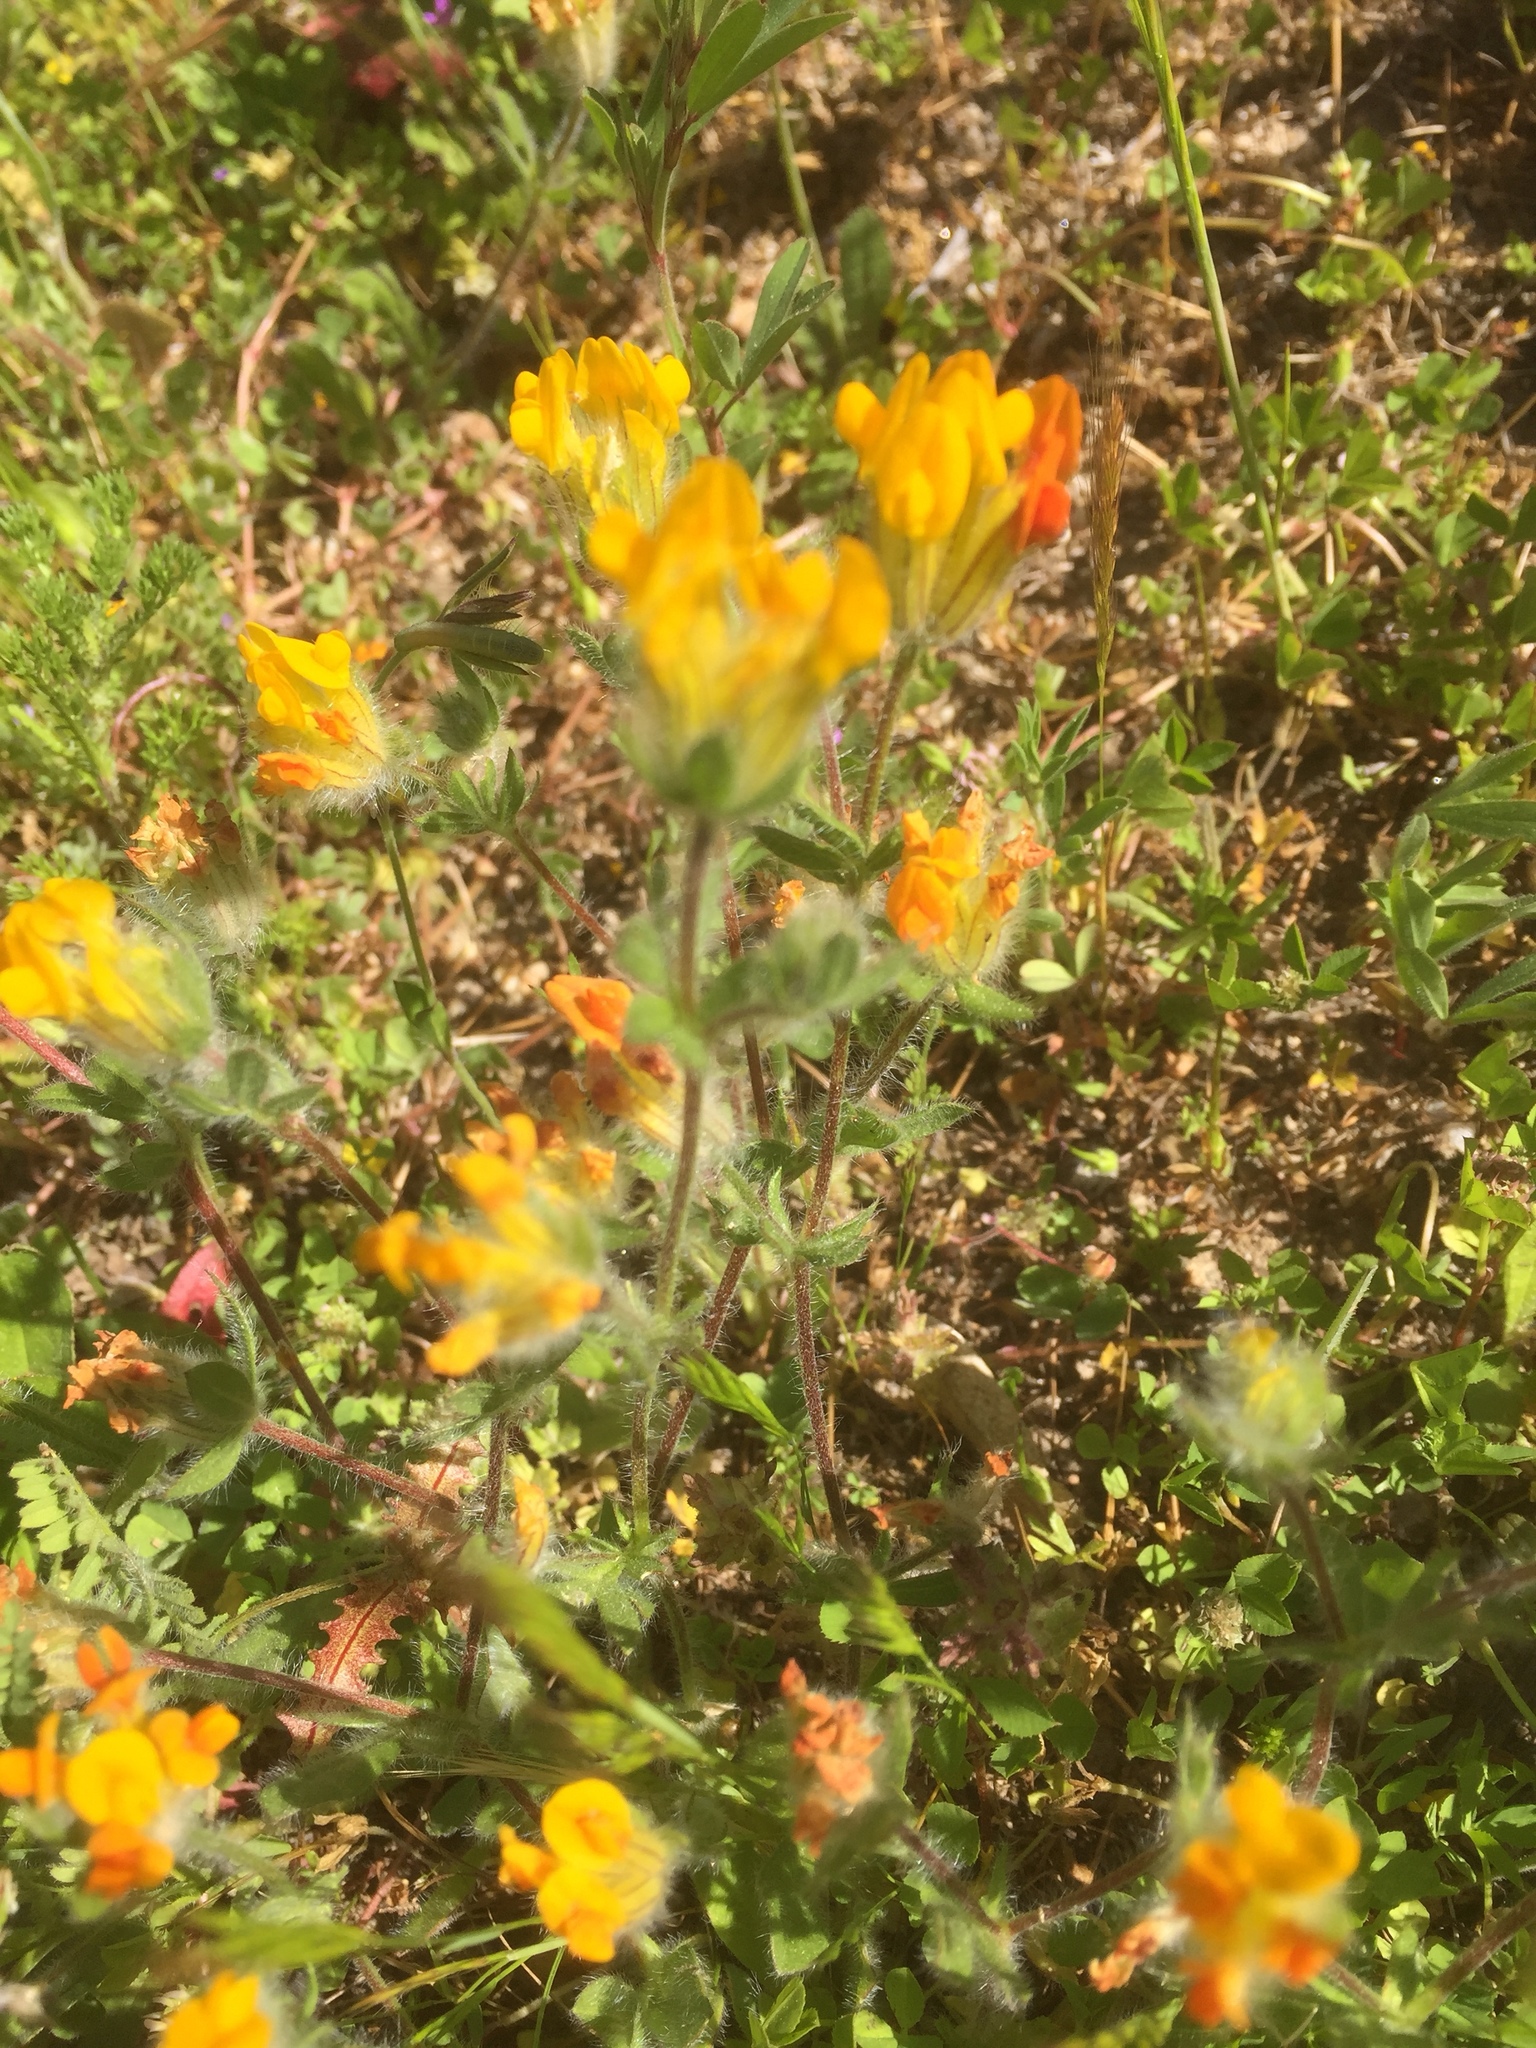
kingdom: Plantae
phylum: Tracheophyta
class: Magnoliopsida
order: Fabales
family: Fabaceae
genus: Anthyllis
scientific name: Anthyllis lotoides
